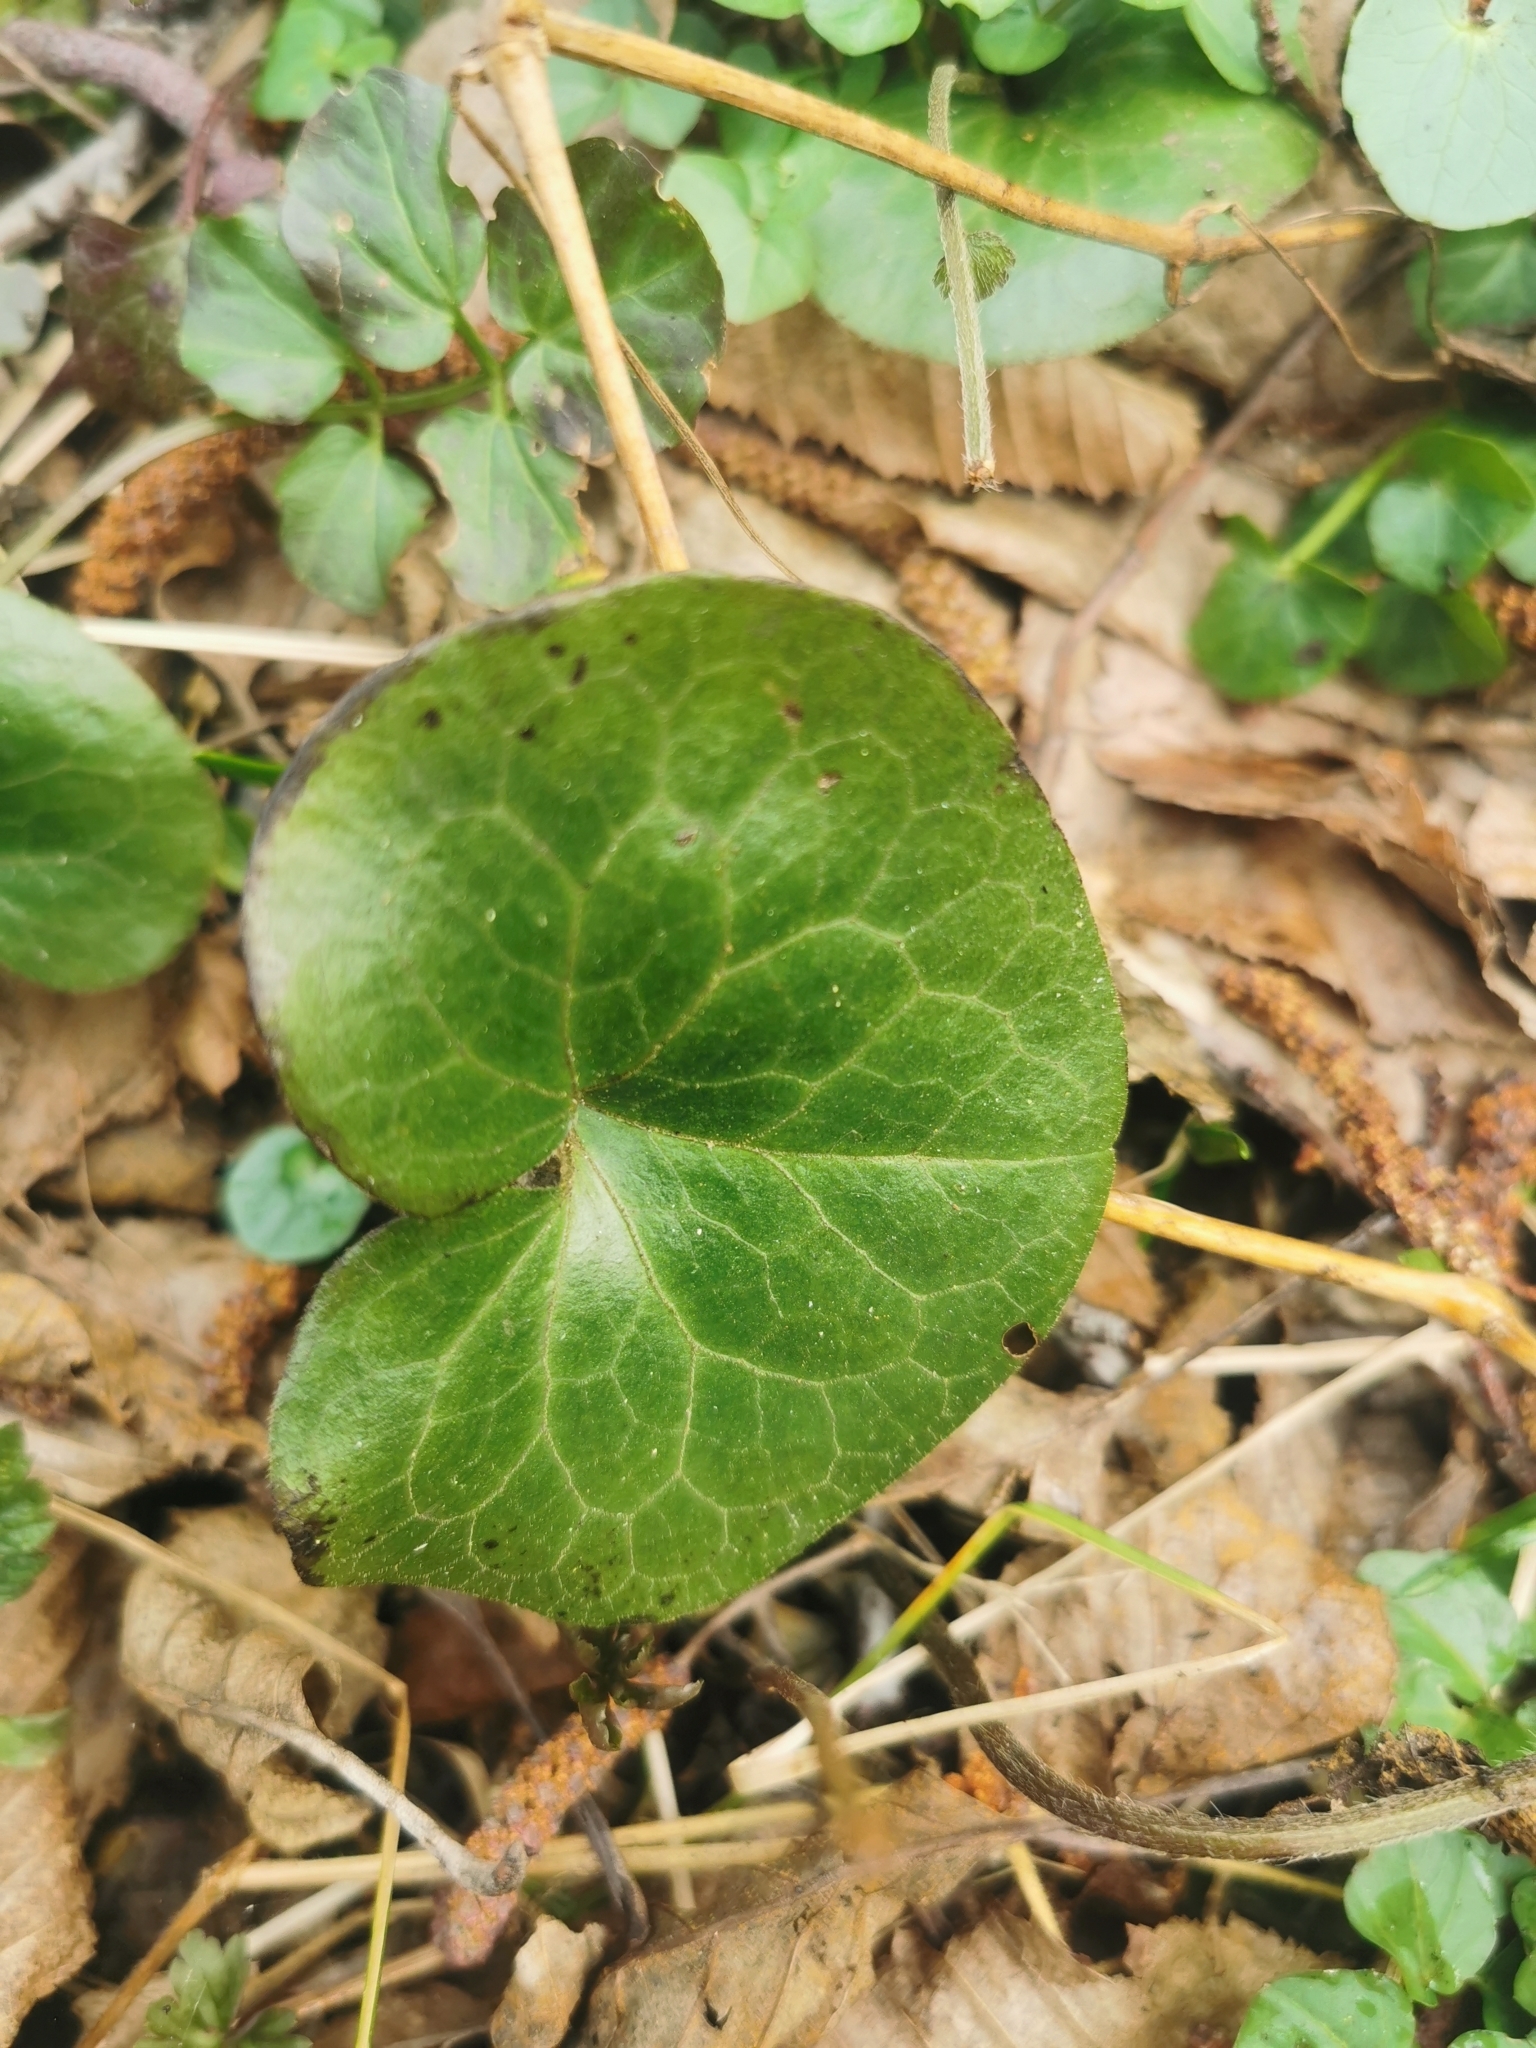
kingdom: Plantae
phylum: Tracheophyta
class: Magnoliopsida
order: Piperales
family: Aristolochiaceae
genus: Asarum
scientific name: Asarum europaeum
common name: Asarabacca
